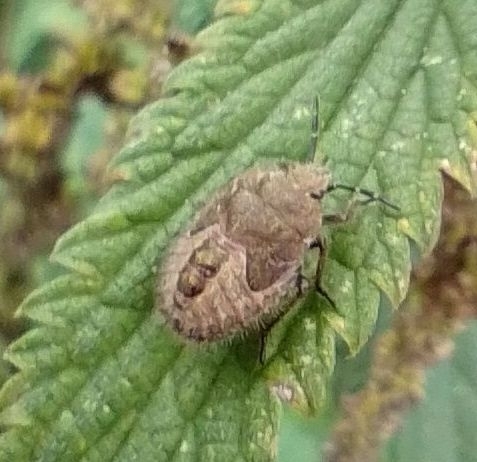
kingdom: Animalia
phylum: Arthropoda
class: Insecta
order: Hemiptera
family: Pentatomidae
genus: Dolycoris
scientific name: Dolycoris baccarum
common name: Sloe bug
